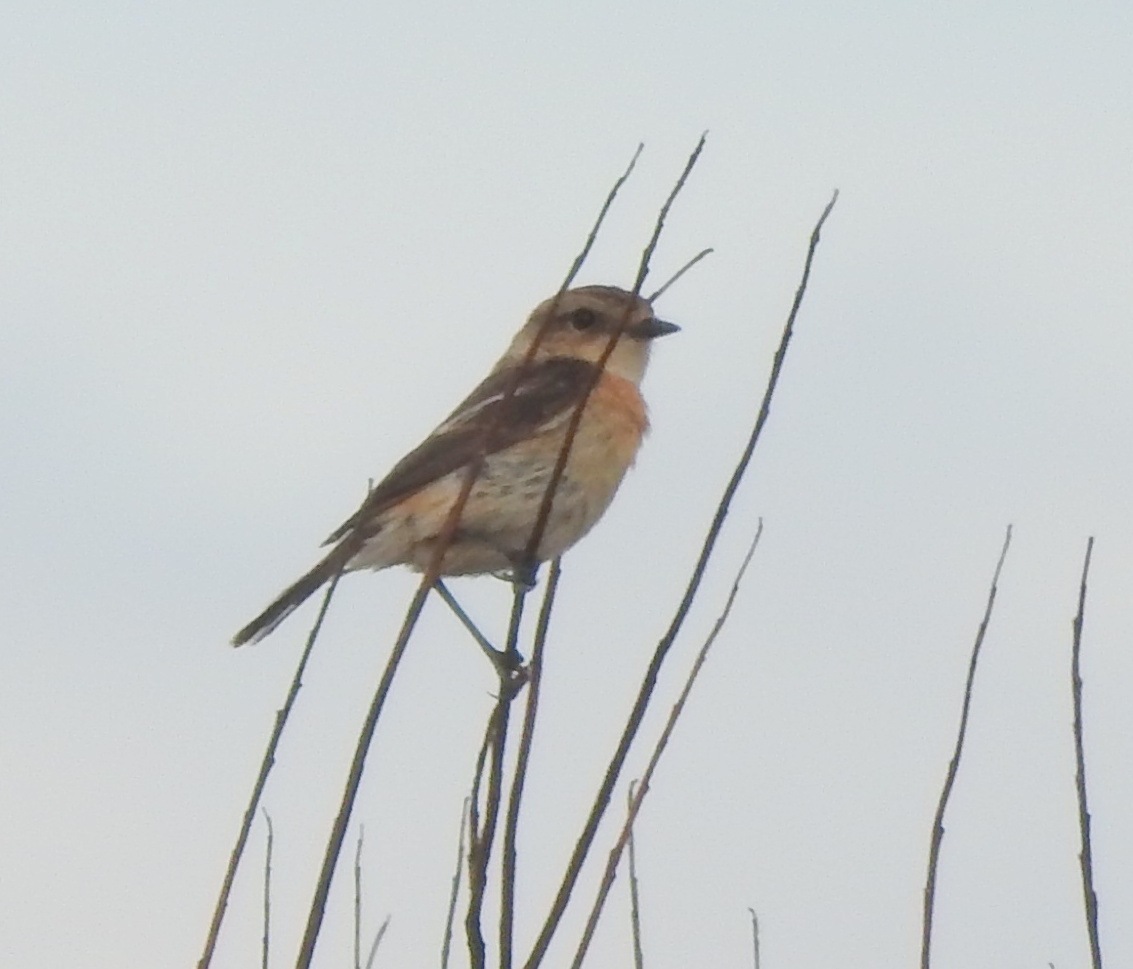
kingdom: Animalia
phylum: Chordata
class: Aves
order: Passeriformes
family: Muscicapidae
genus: Saxicola
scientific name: Saxicola stejnegeri
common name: Stejneger's stonechat
